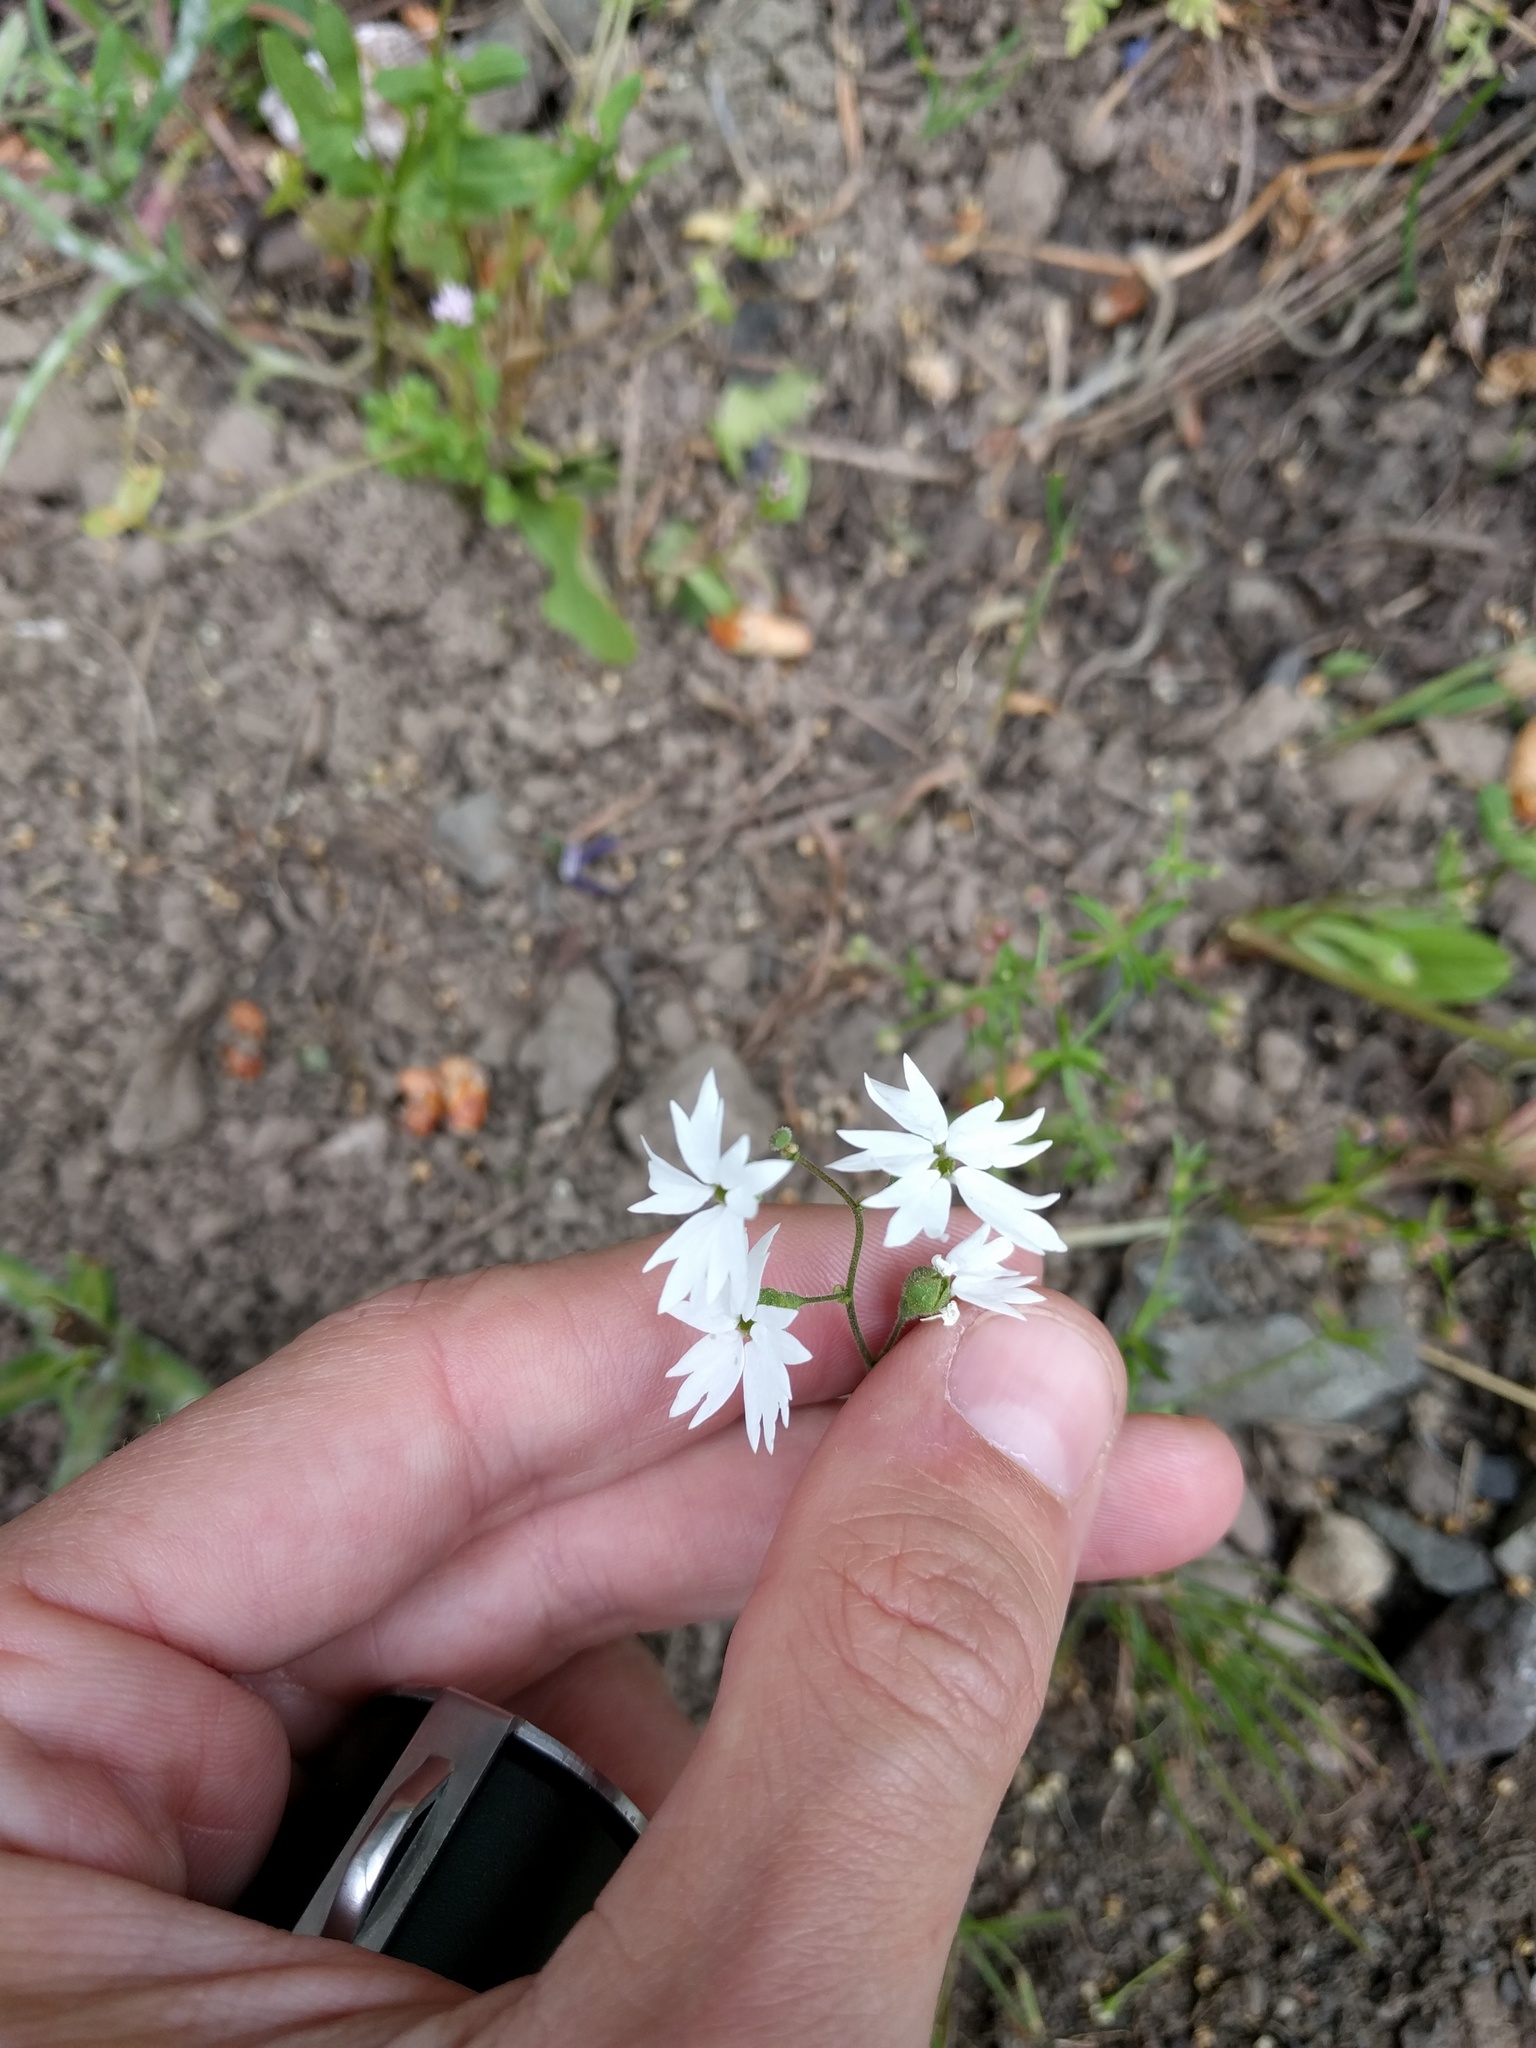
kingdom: Plantae
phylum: Tracheophyta
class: Magnoliopsida
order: Saxifragales
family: Saxifragaceae
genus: Lithophragma
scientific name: Lithophragma affine
